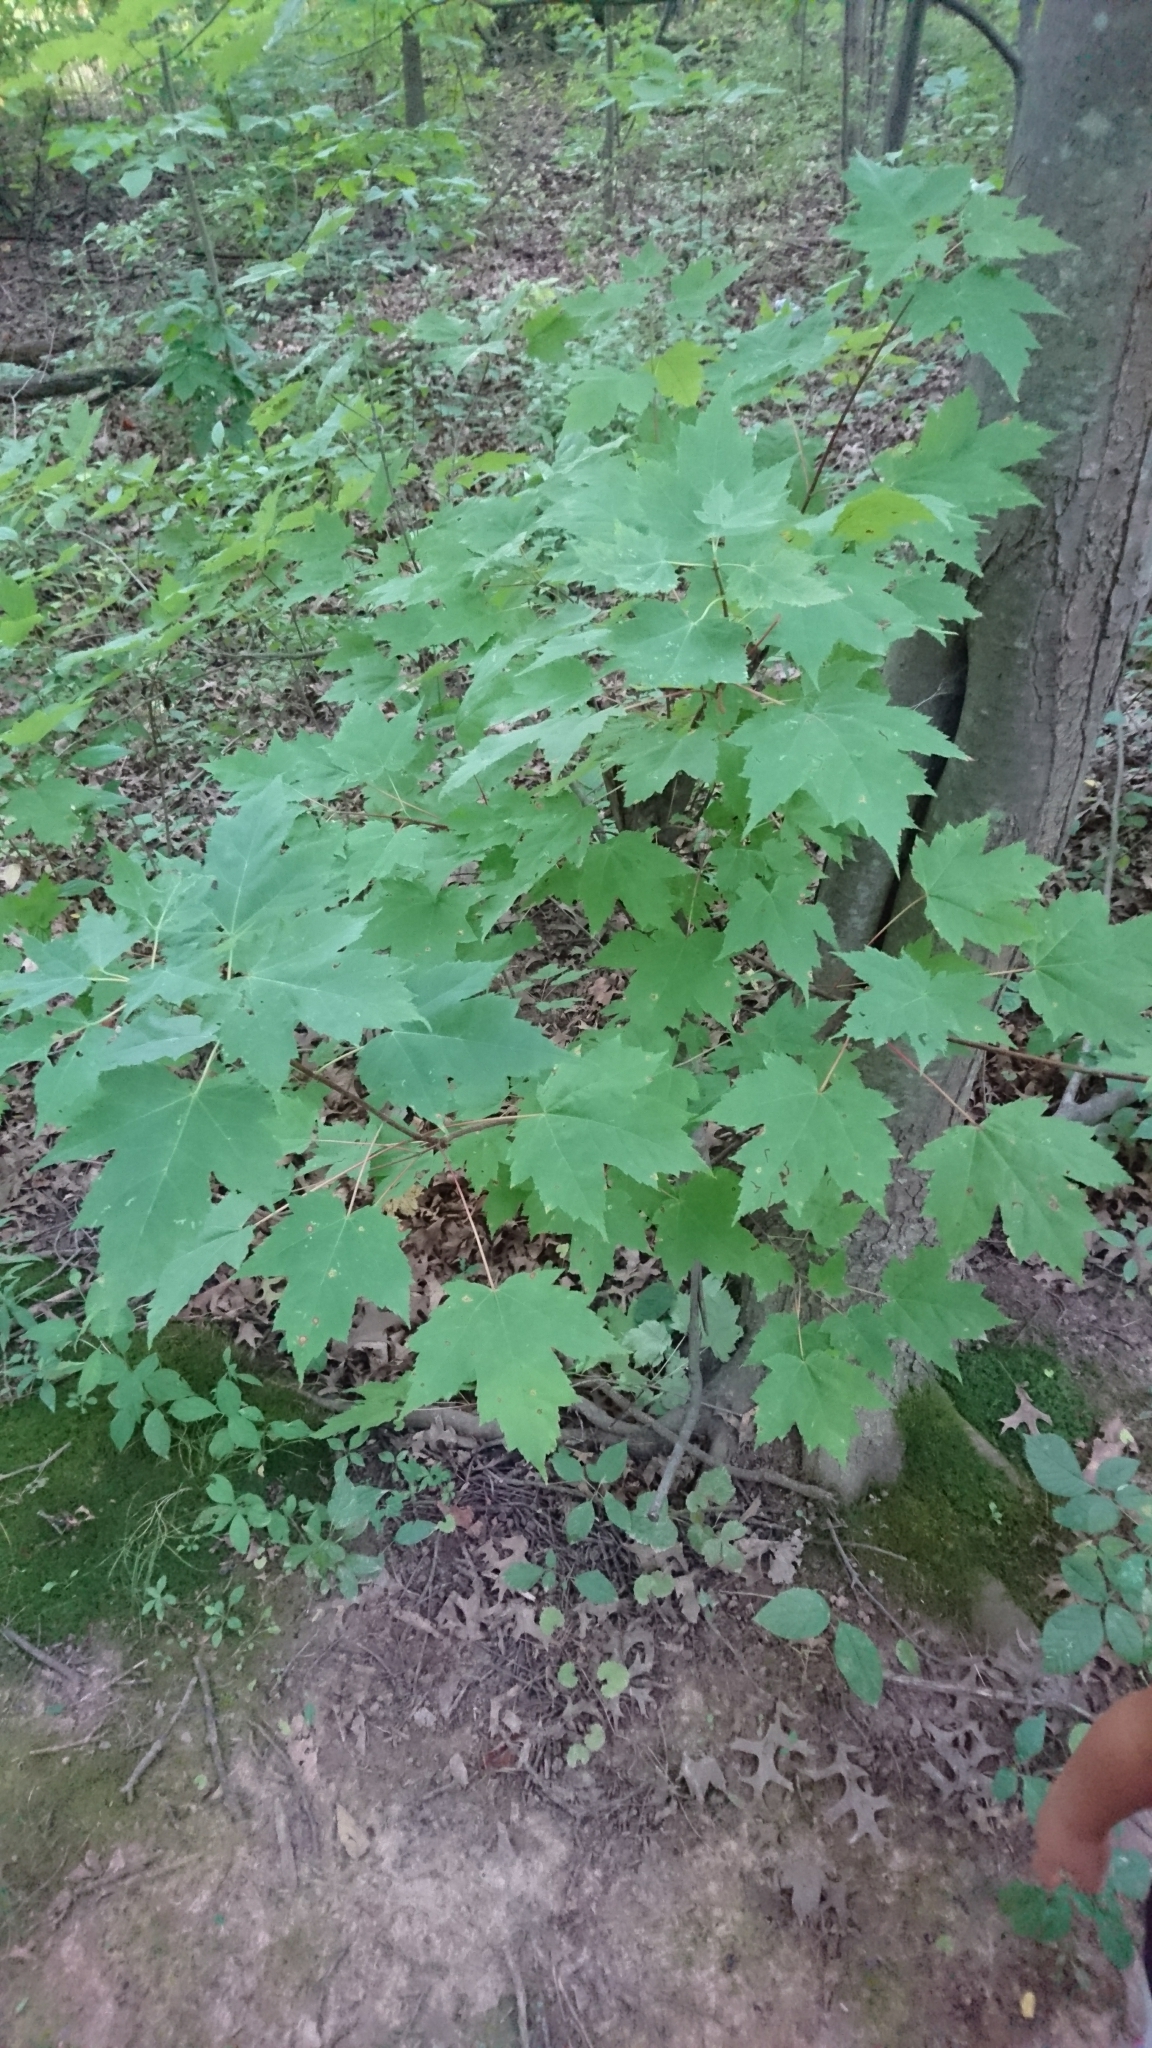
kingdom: Plantae
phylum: Tracheophyta
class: Magnoliopsida
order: Sapindales
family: Sapindaceae
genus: Acer
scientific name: Acer rubrum
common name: Red maple
